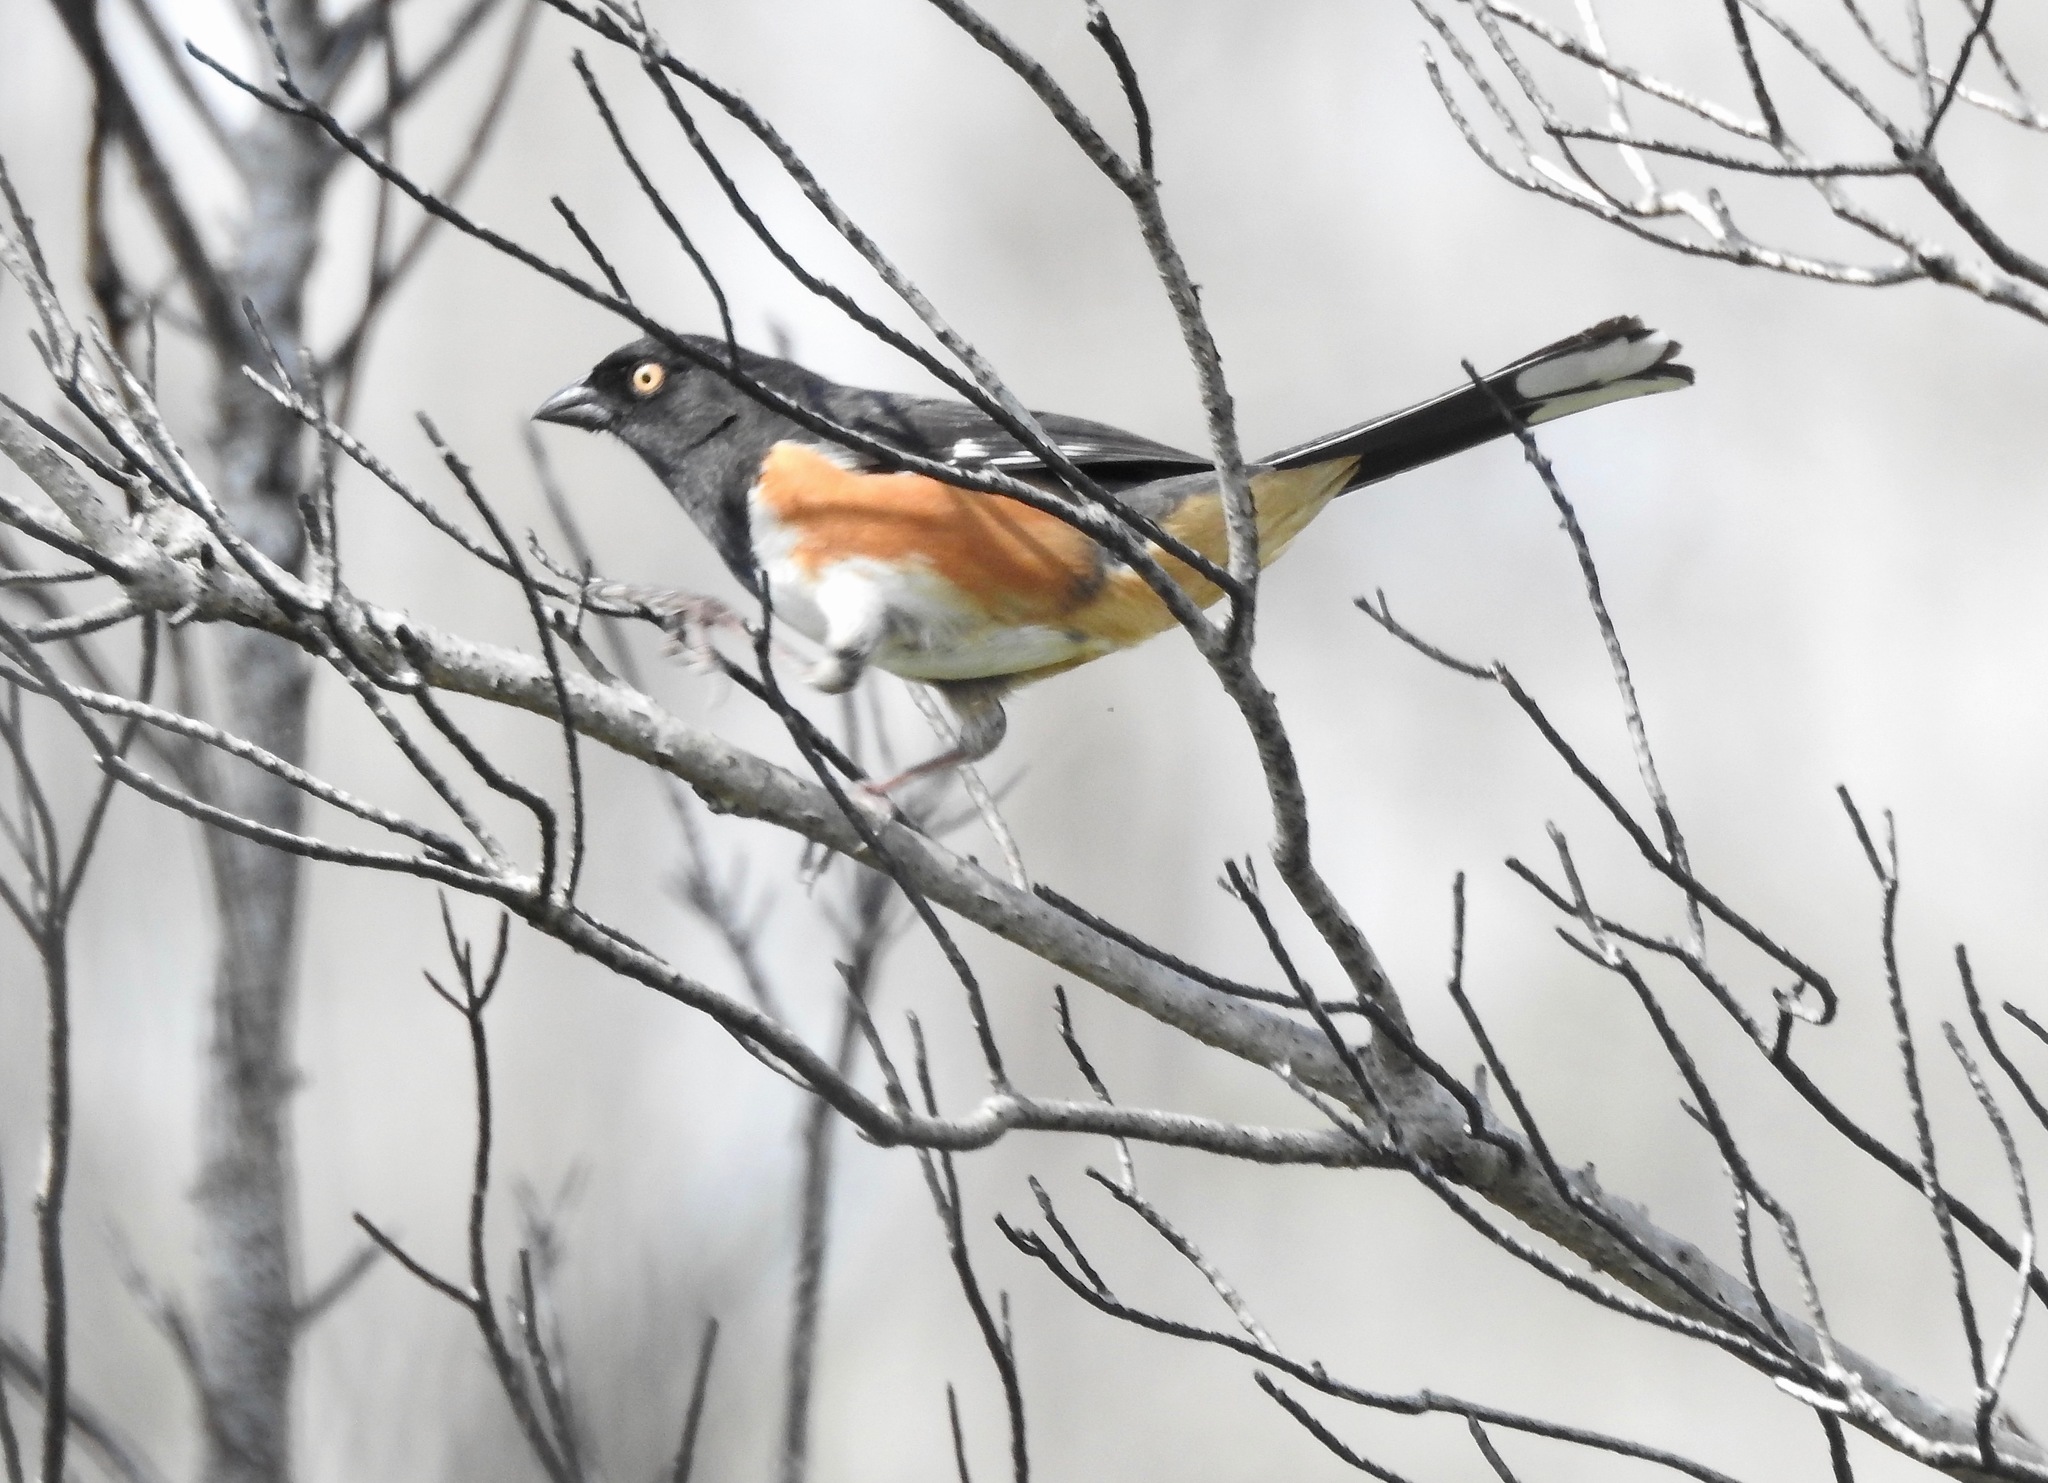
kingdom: Animalia
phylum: Chordata
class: Aves
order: Passeriformes
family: Passerellidae
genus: Pipilo
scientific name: Pipilo erythrophthalmus
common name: Eastern towhee
